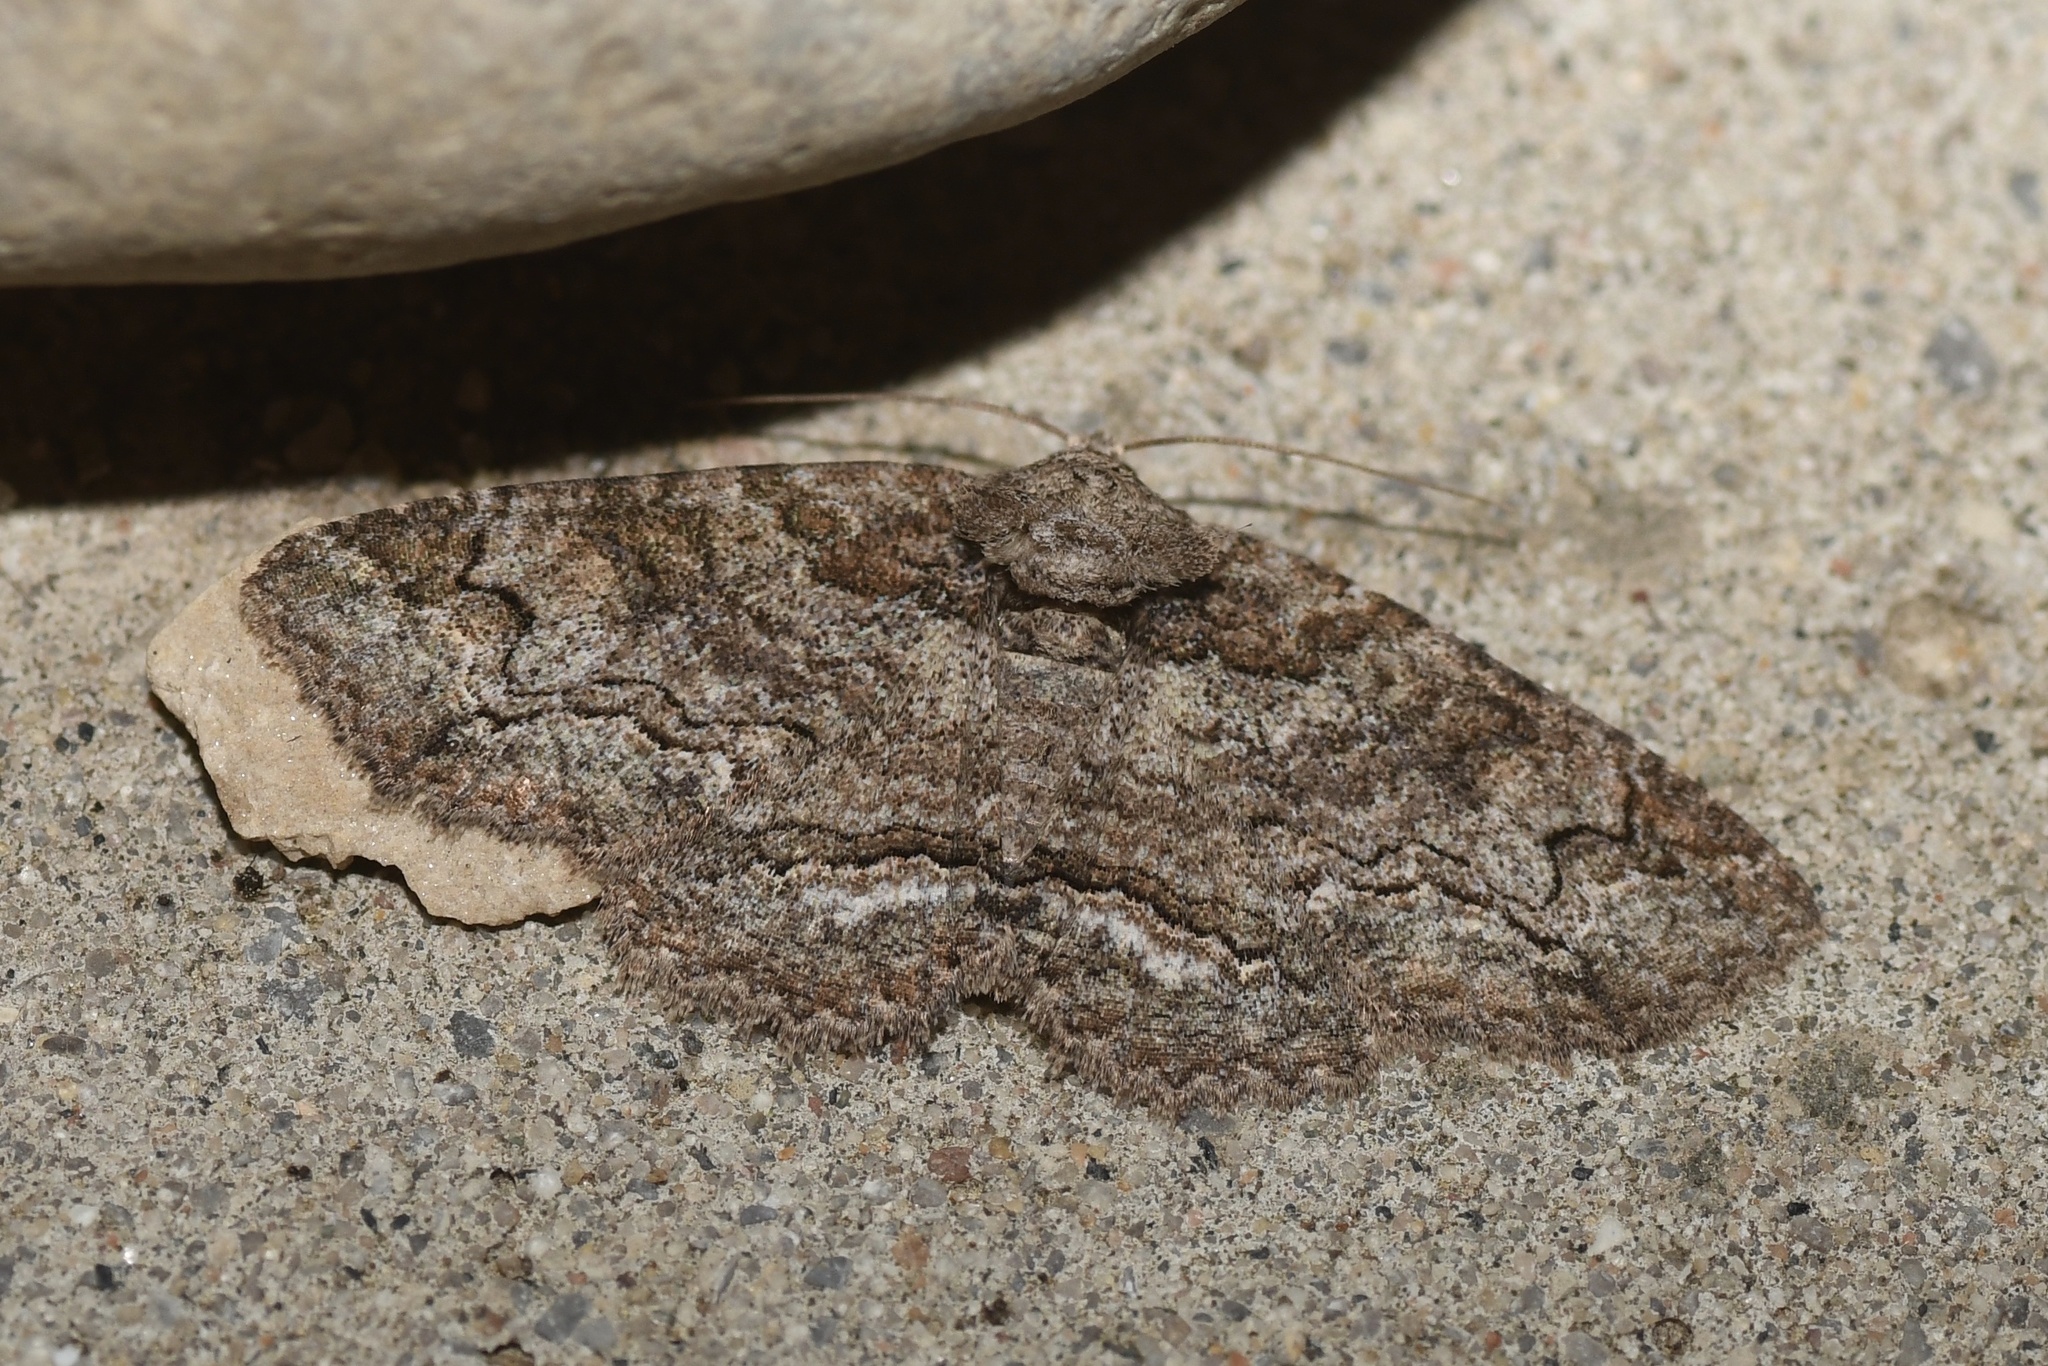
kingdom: Animalia
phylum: Arthropoda
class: Insecta
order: Lepidoptera
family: Erebidae
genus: Zale
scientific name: Zale galbanata
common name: Maple zale
